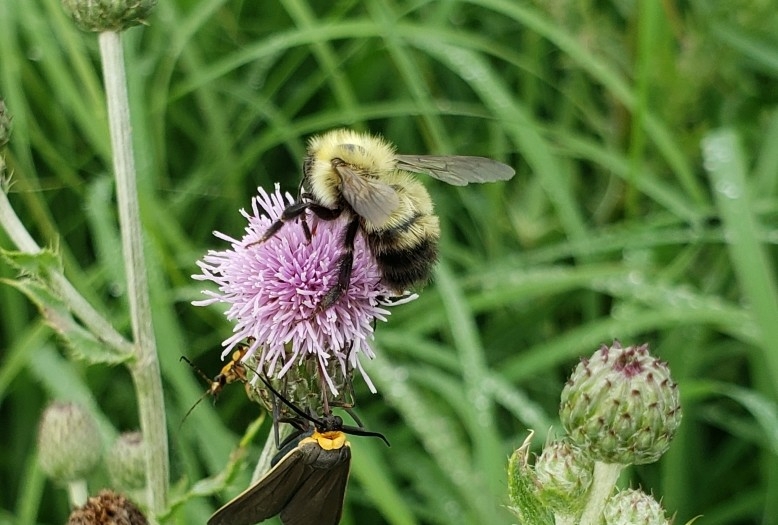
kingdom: Animalia
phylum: Arthropoda
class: Insecta
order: Hymenoptera
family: Apidae
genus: Bombus
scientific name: Bombus perplexus
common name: Confusing bumble bee
